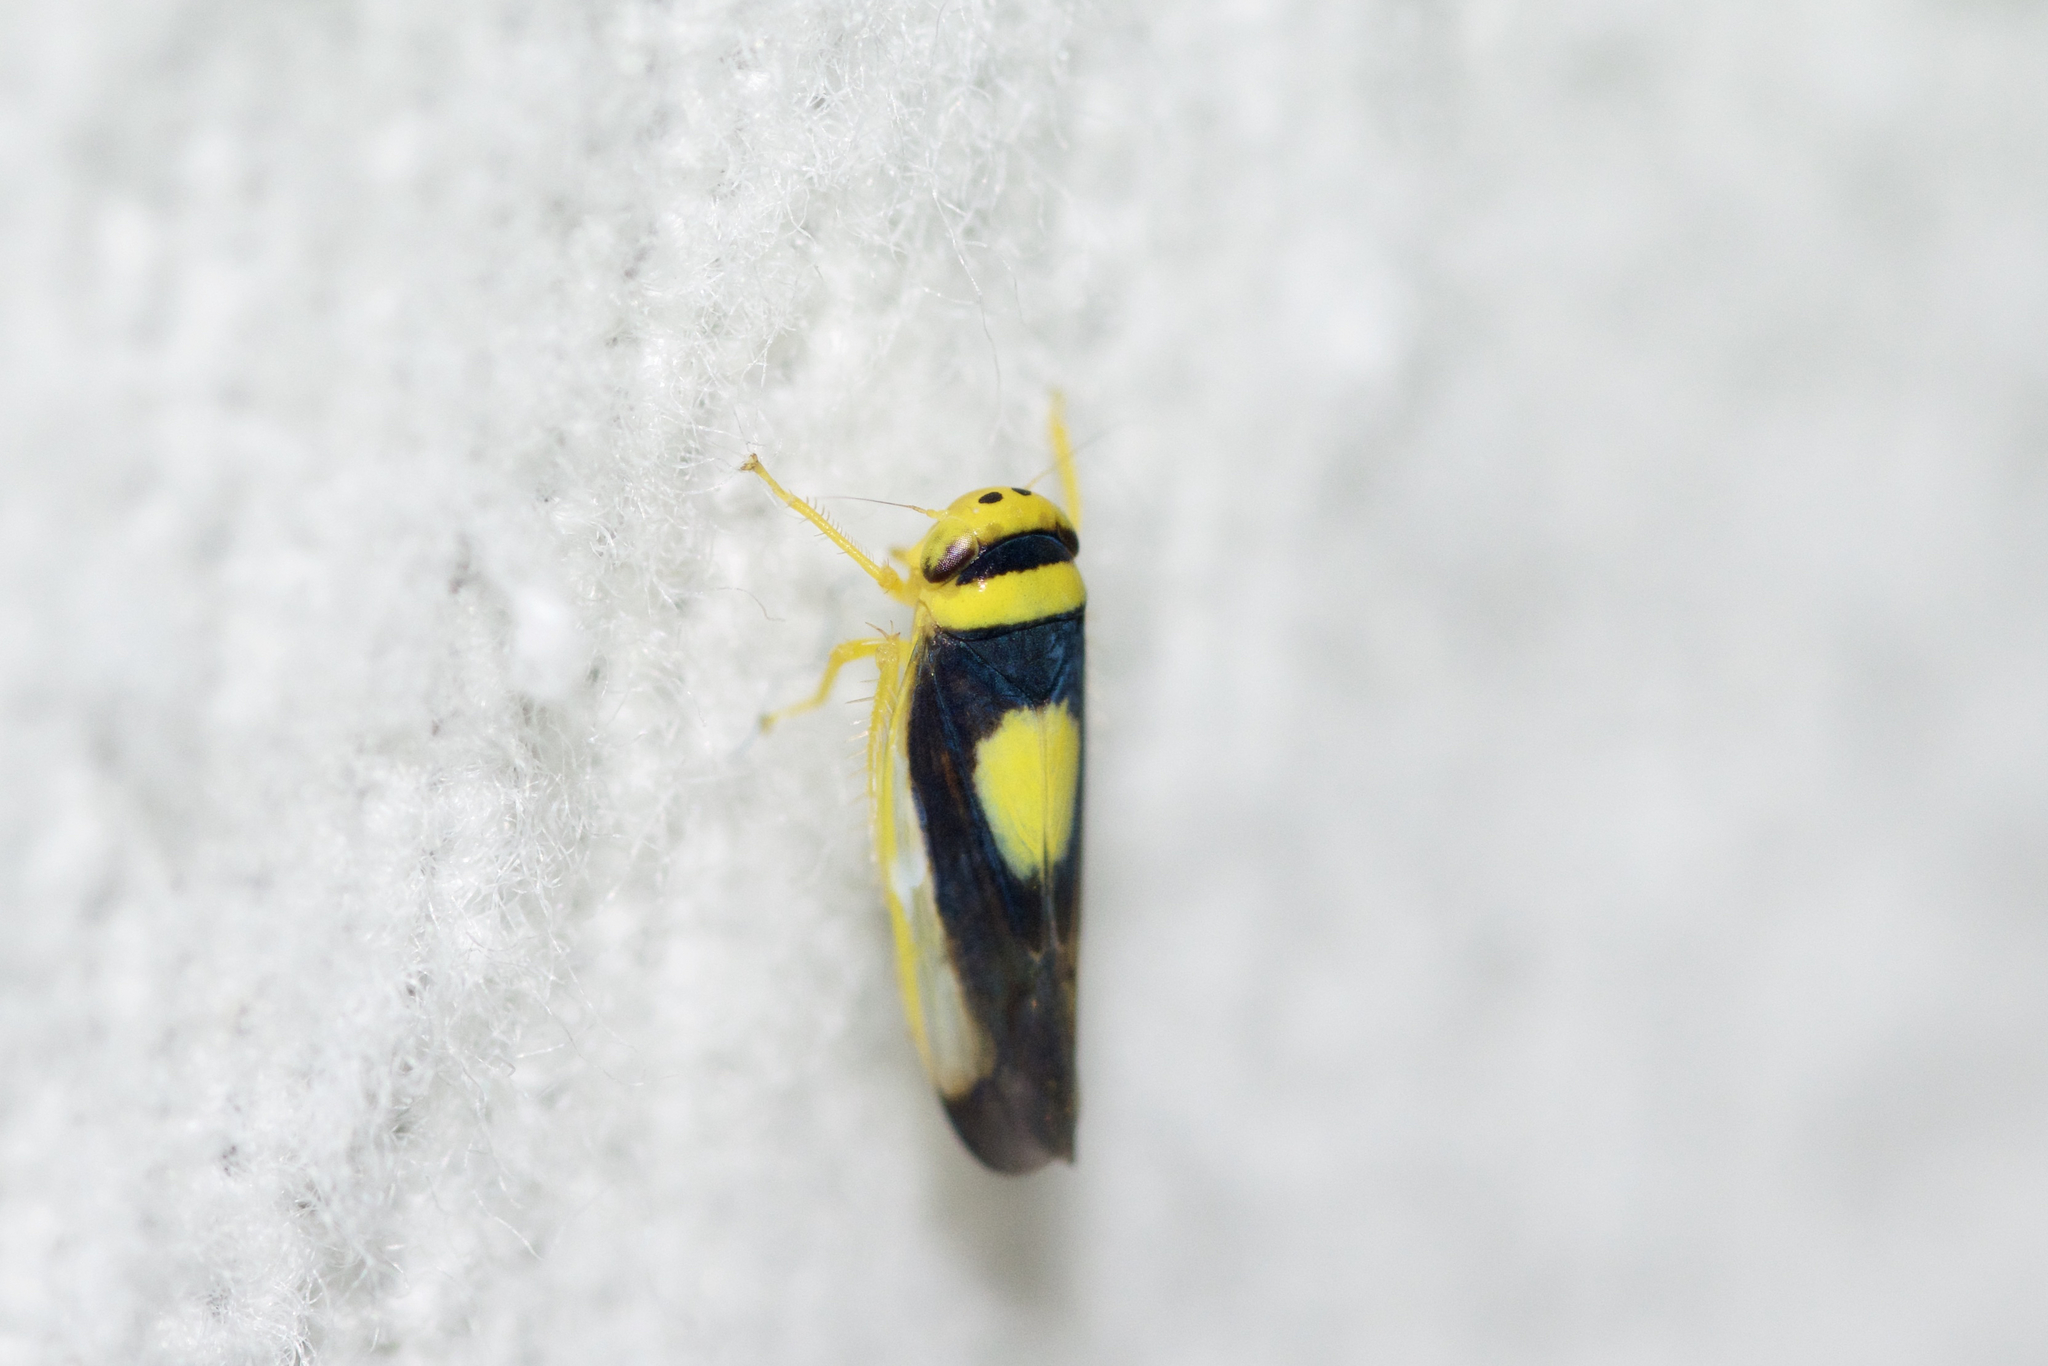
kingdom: Animalia
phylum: Arthropoda
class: Insecta
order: Hemiptera
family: Cicadellidae
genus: Colladonus
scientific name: Colladonus clitellarius
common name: The saddleback leafhopper
